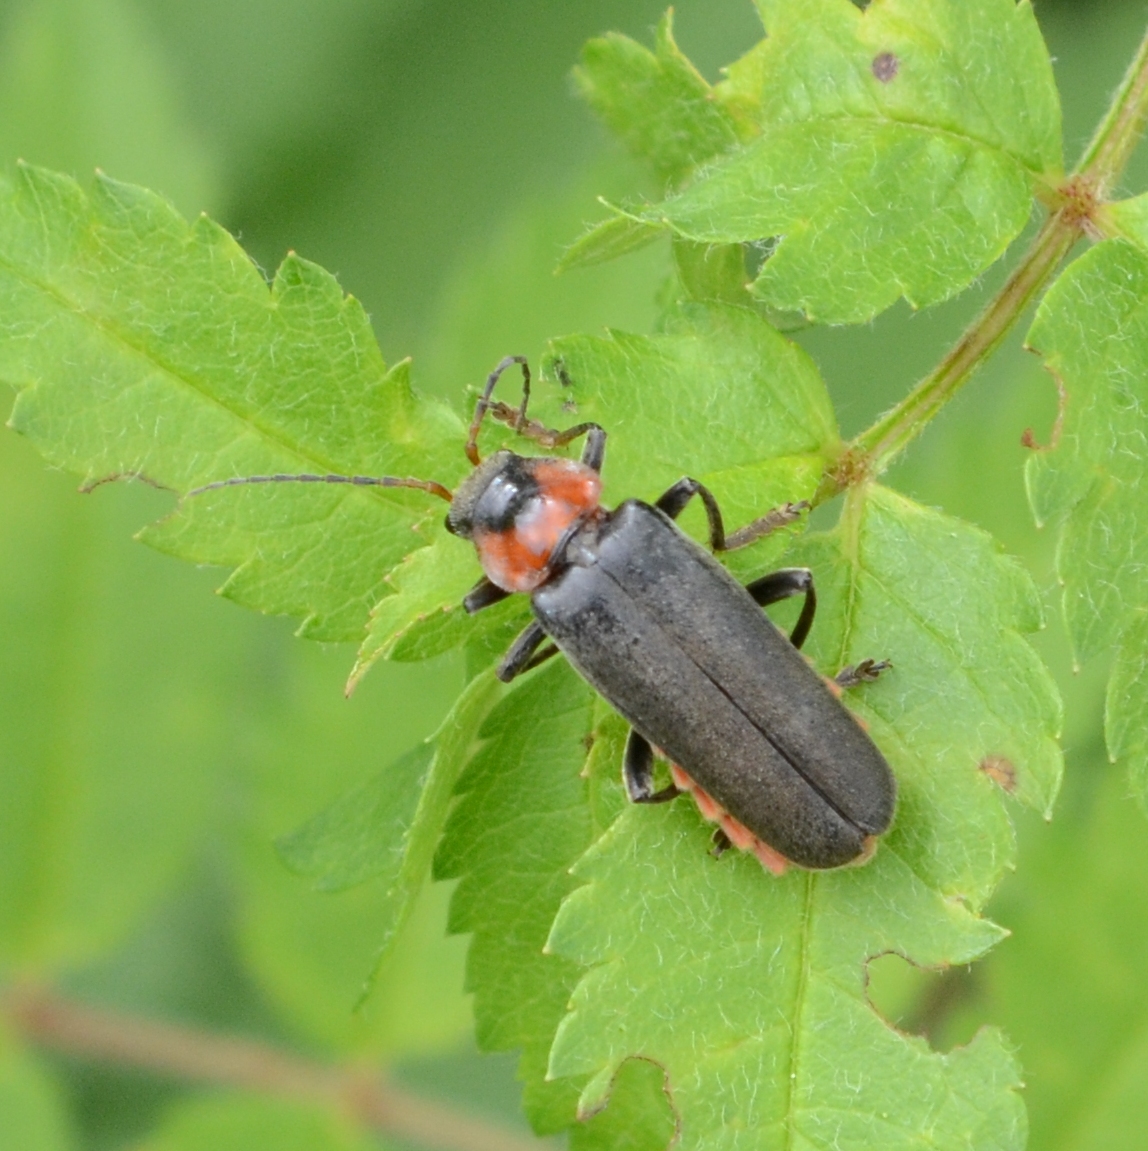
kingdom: Animalia
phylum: Arthropoda
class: Insecta
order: Coleoptera
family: Cantharidae
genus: Cantharis
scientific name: Cantharis fusca
